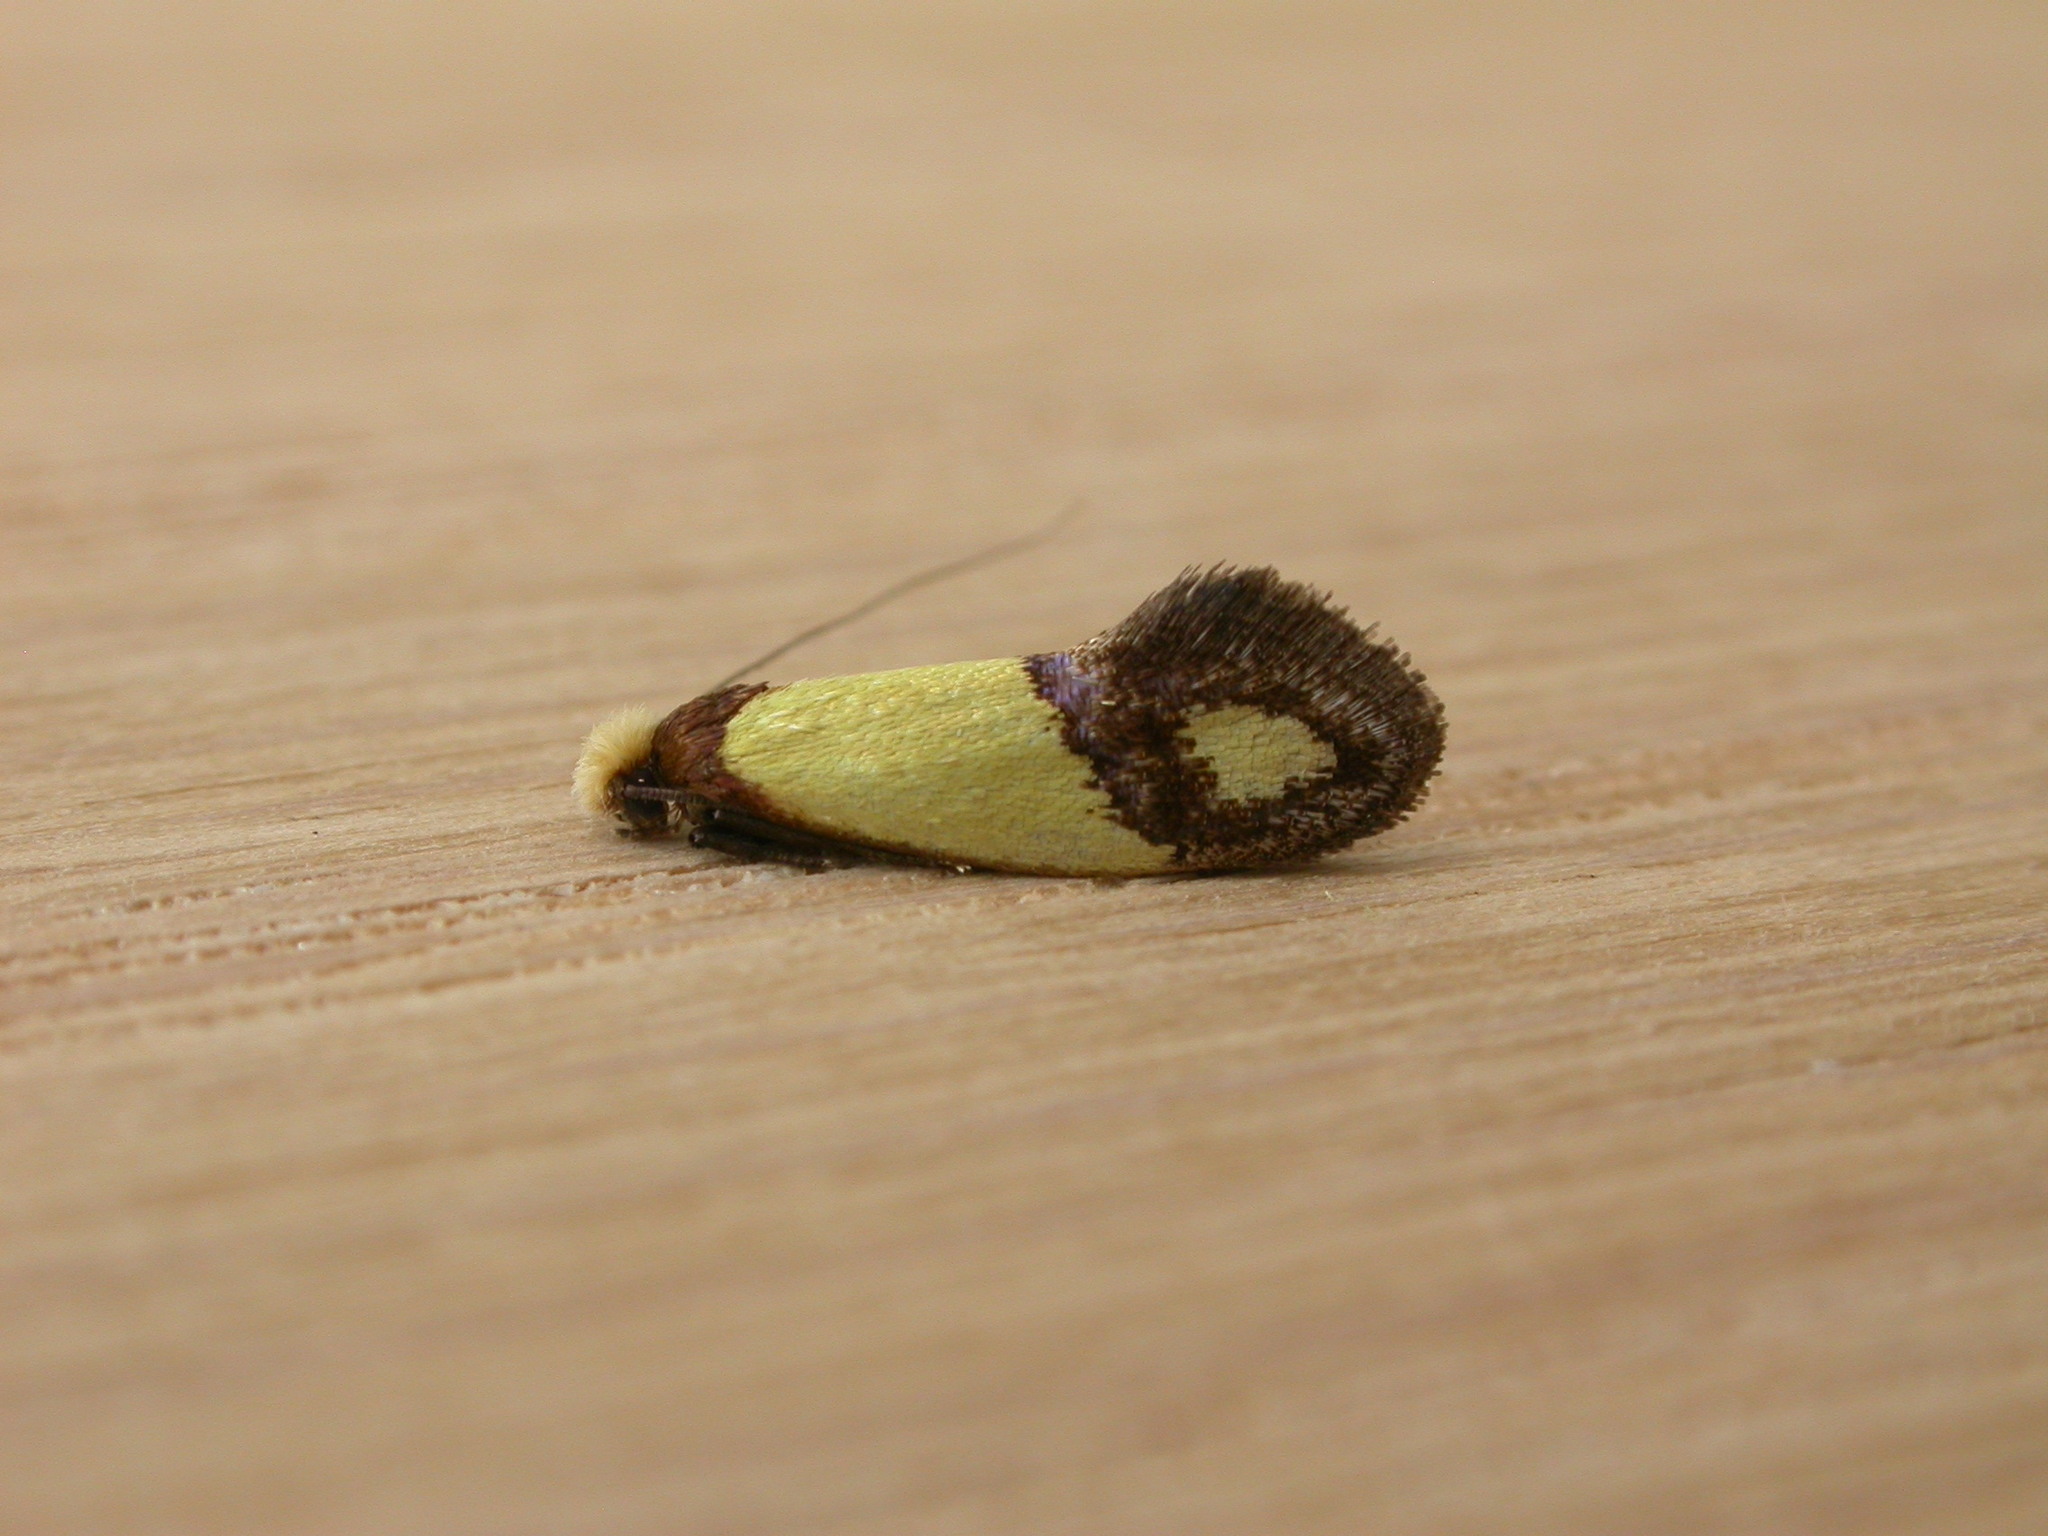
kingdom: Animalia
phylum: Arthropoda
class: Insecta
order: Lepidoptera
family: Tineidae
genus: Edosa
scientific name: Edosa fraudulens
